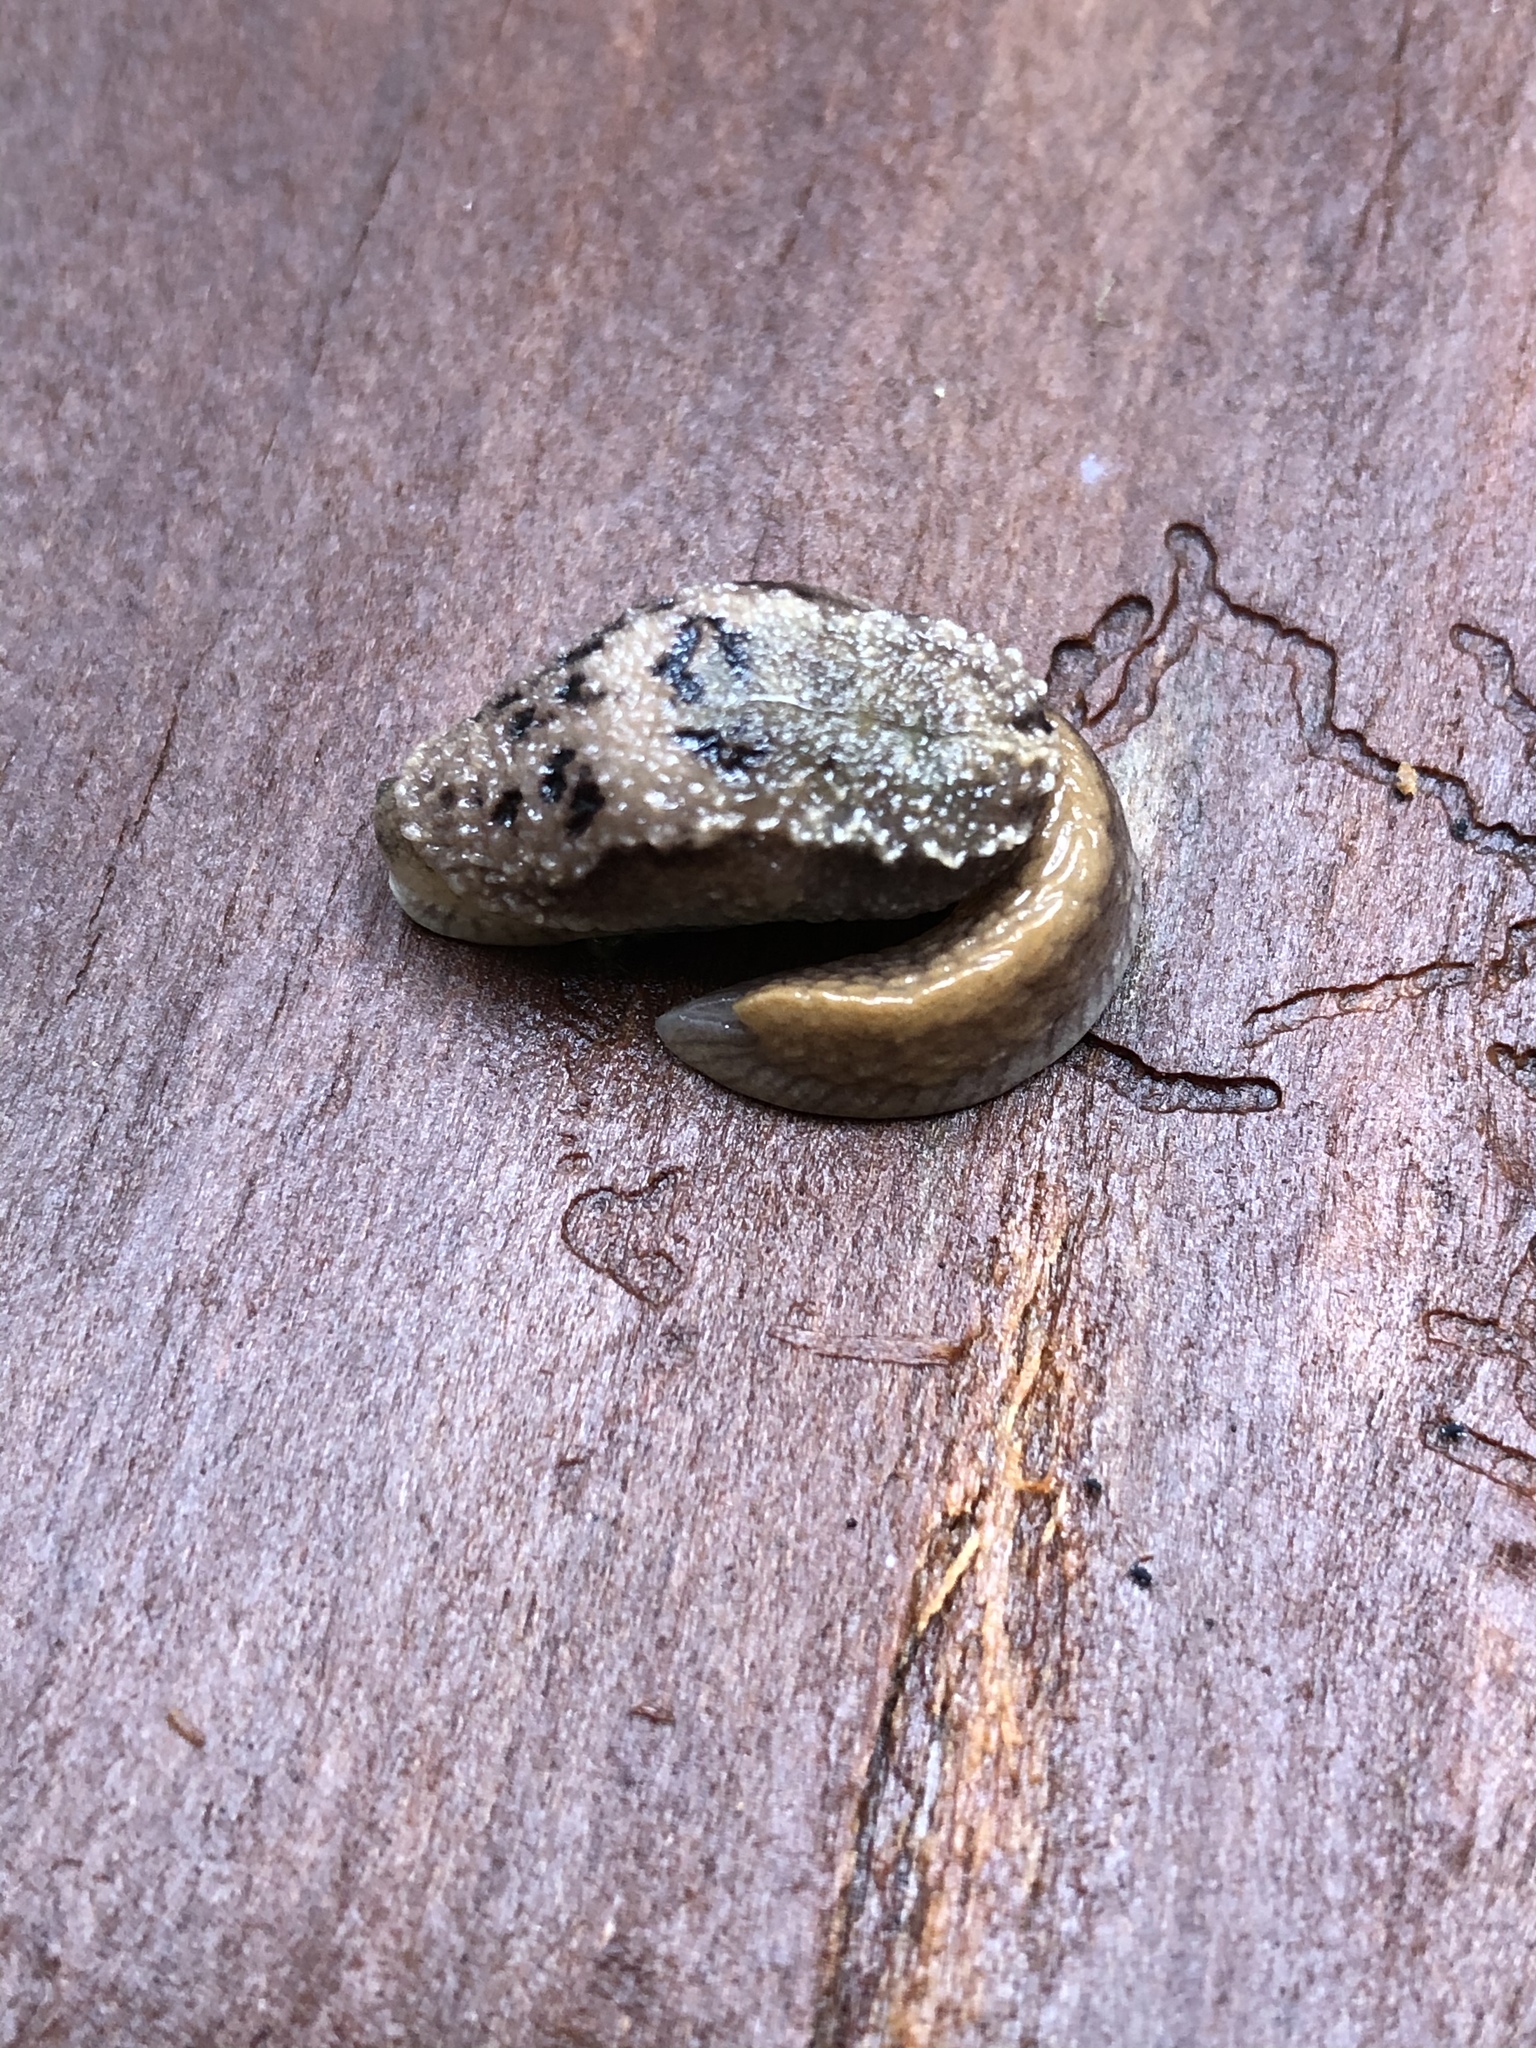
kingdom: Animalia
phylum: Mollusca
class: Gastropoda
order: Stylommatophora
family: Binneyidae
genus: Hemphillia
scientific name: Hemphillia malonei
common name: Malone jumping slug
